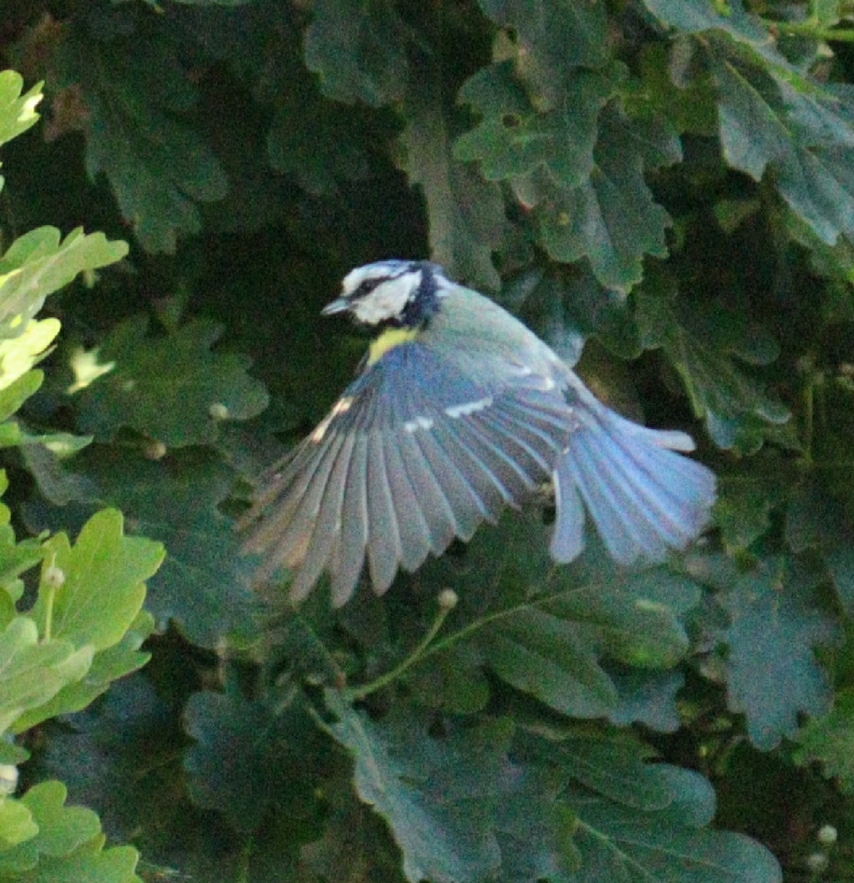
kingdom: Animalia
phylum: Chordata
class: Aves
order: Passeriformes
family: Paridae
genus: Cyanistes
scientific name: Cyanistes caeruleus
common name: Eurasian blue tit
